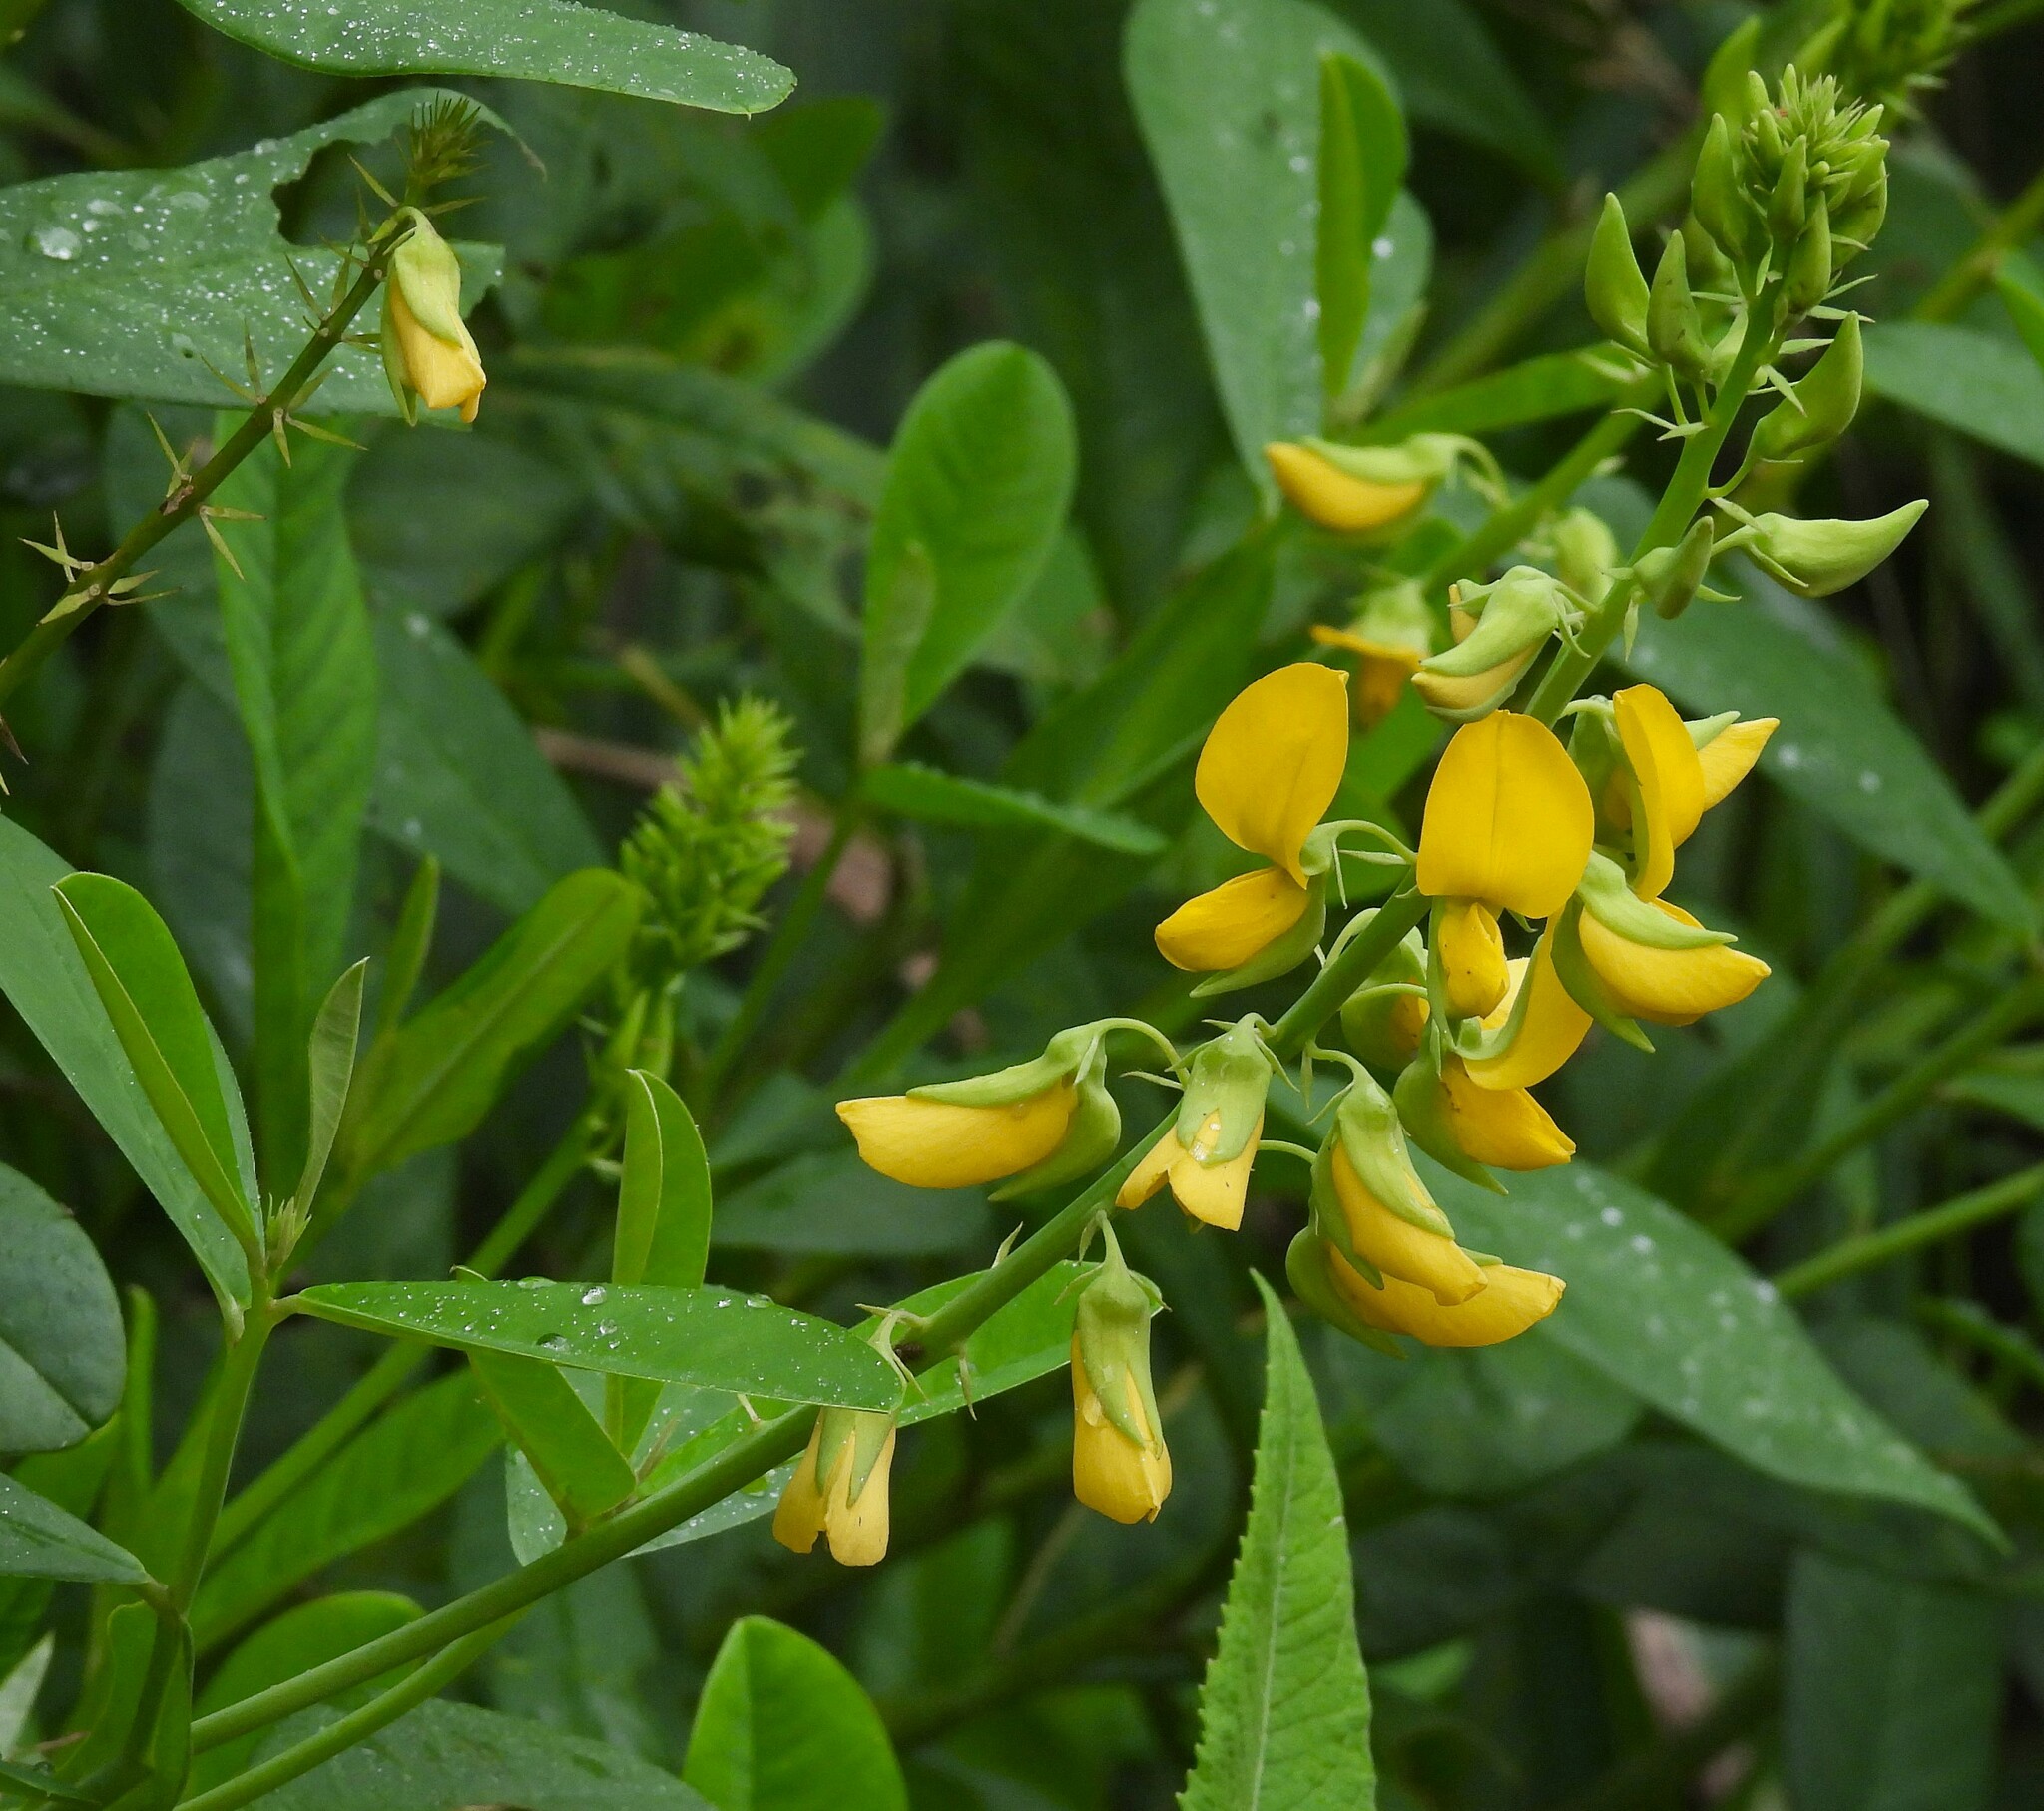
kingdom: Plantae
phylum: Tracheophyta
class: Magnoliopsida
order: Fabales
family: Fabaceae
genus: Crotalaria
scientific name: Crotalaria spectabilis
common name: Showy rattlebox
